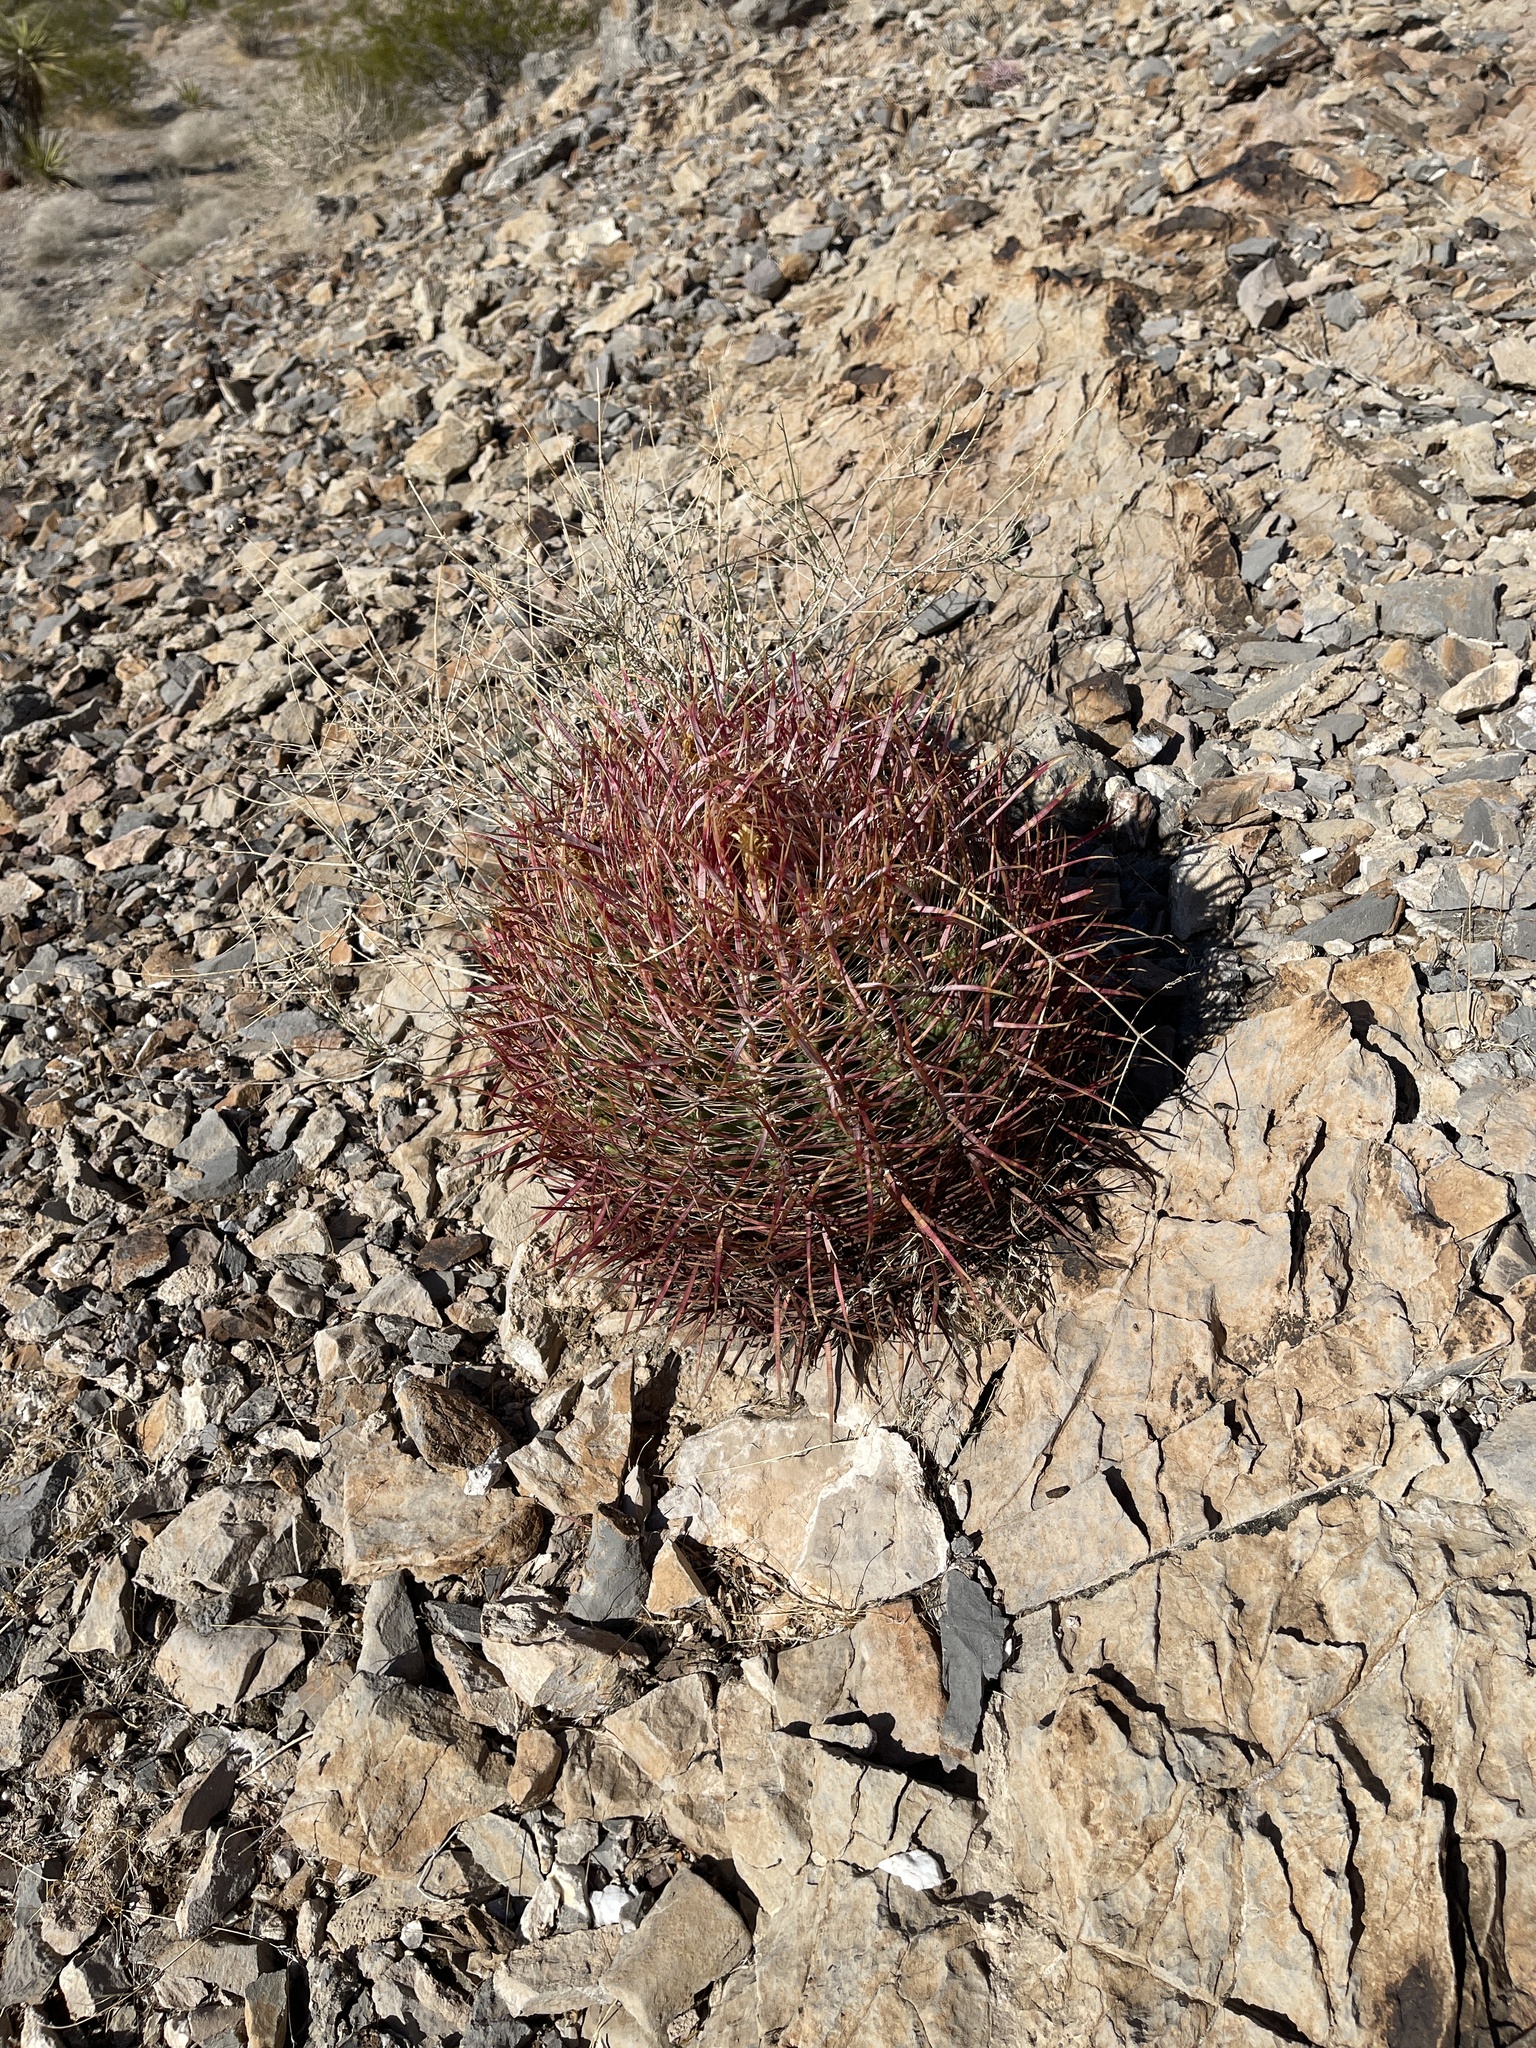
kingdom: Plantae
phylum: Tracheophyta
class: Magnoliopsida
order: Caryophyllales
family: Cactaceae
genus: Ferocactus
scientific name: Ferocactus cylindraceus
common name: California barrel cactus
